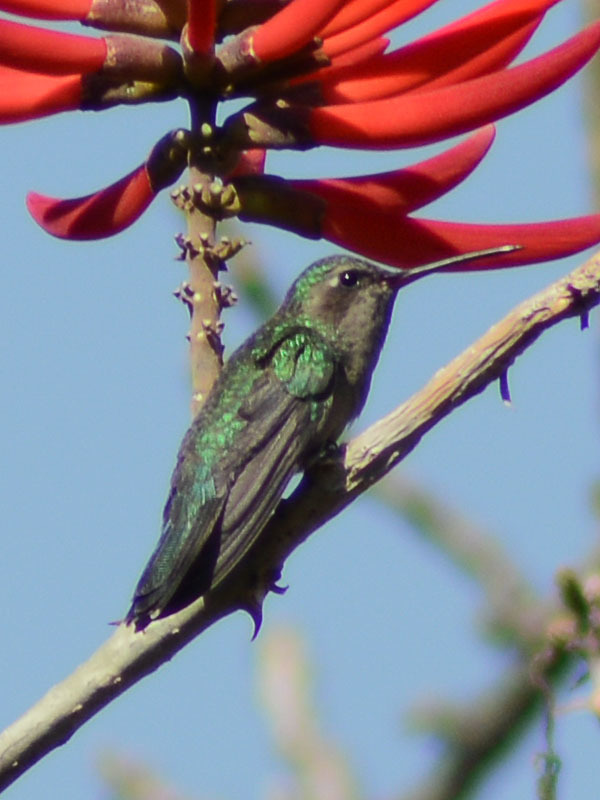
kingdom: Animalia
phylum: Chordata
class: Aves
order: Apodiformes
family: Trochilidae
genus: Cynanthus
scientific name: Cynanthus latirostris
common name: Broad-billed hummingbird
